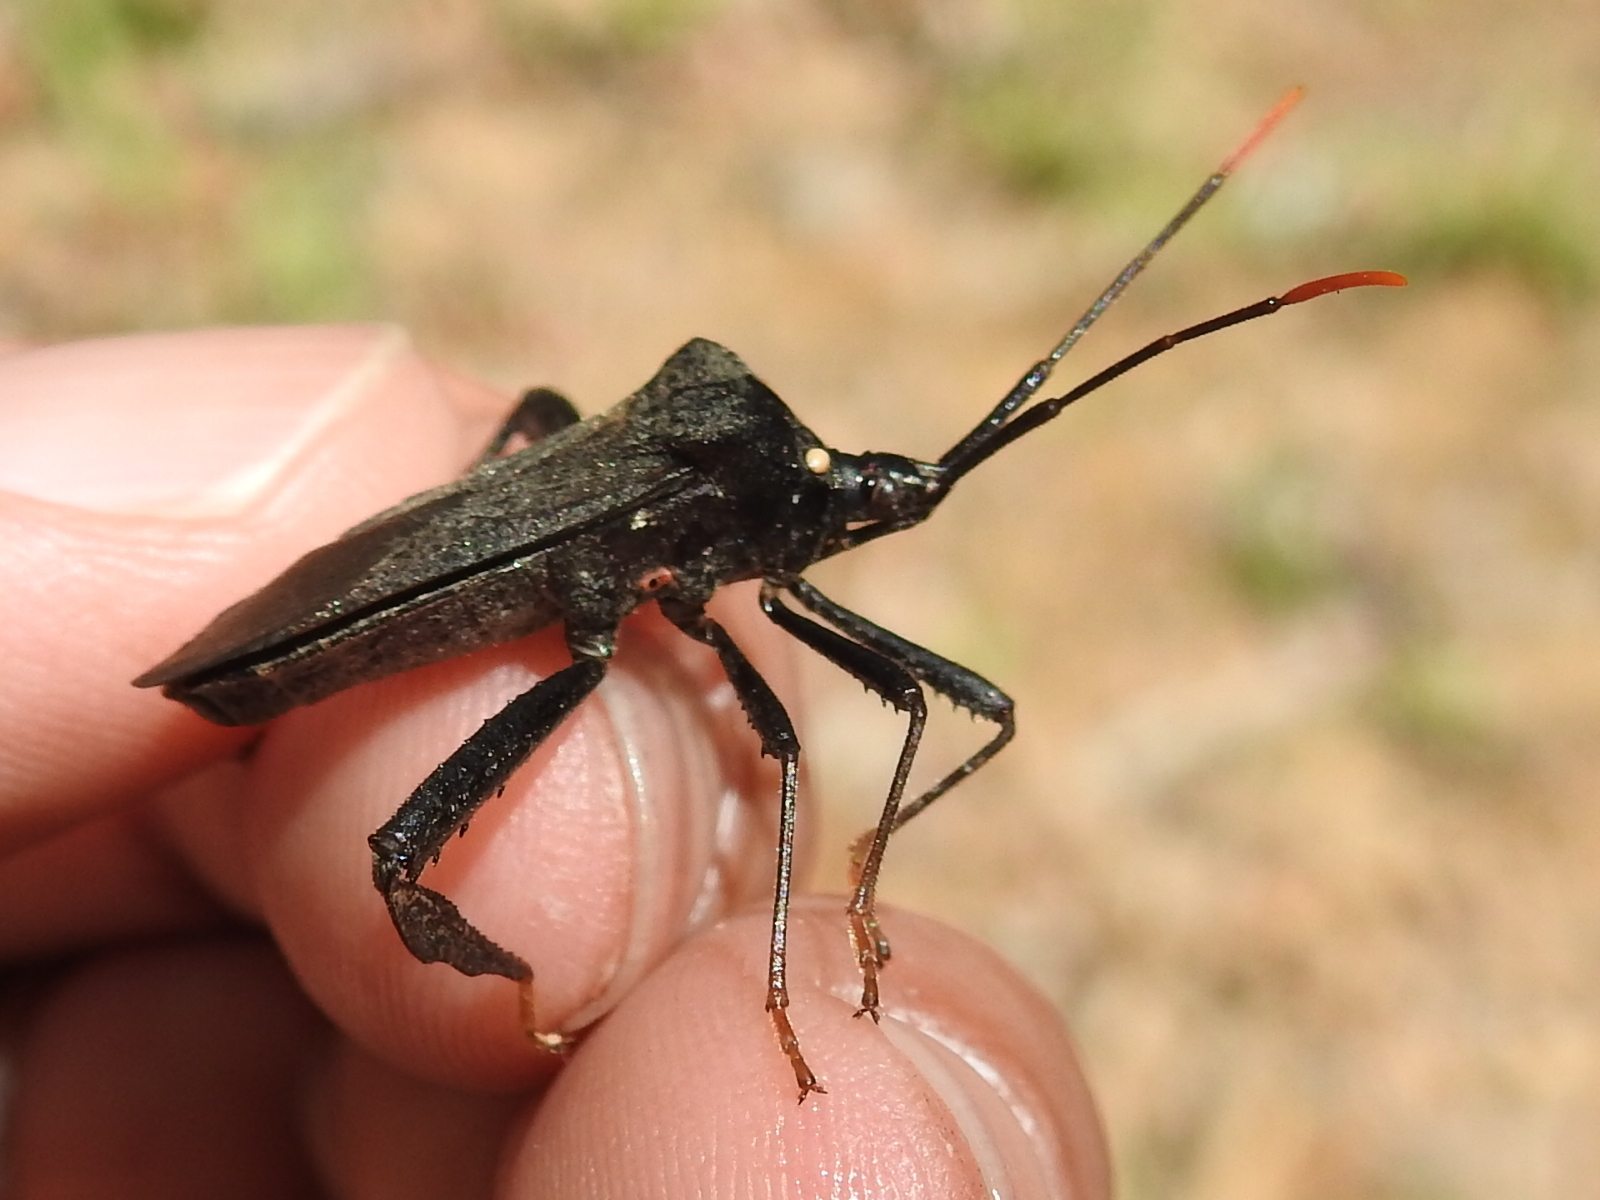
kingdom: Animalia
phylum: Arthropoda
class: Insecta
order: Hemiptera
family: Coreidae
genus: Acanthocephala
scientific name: Acanthocephala terminalis
